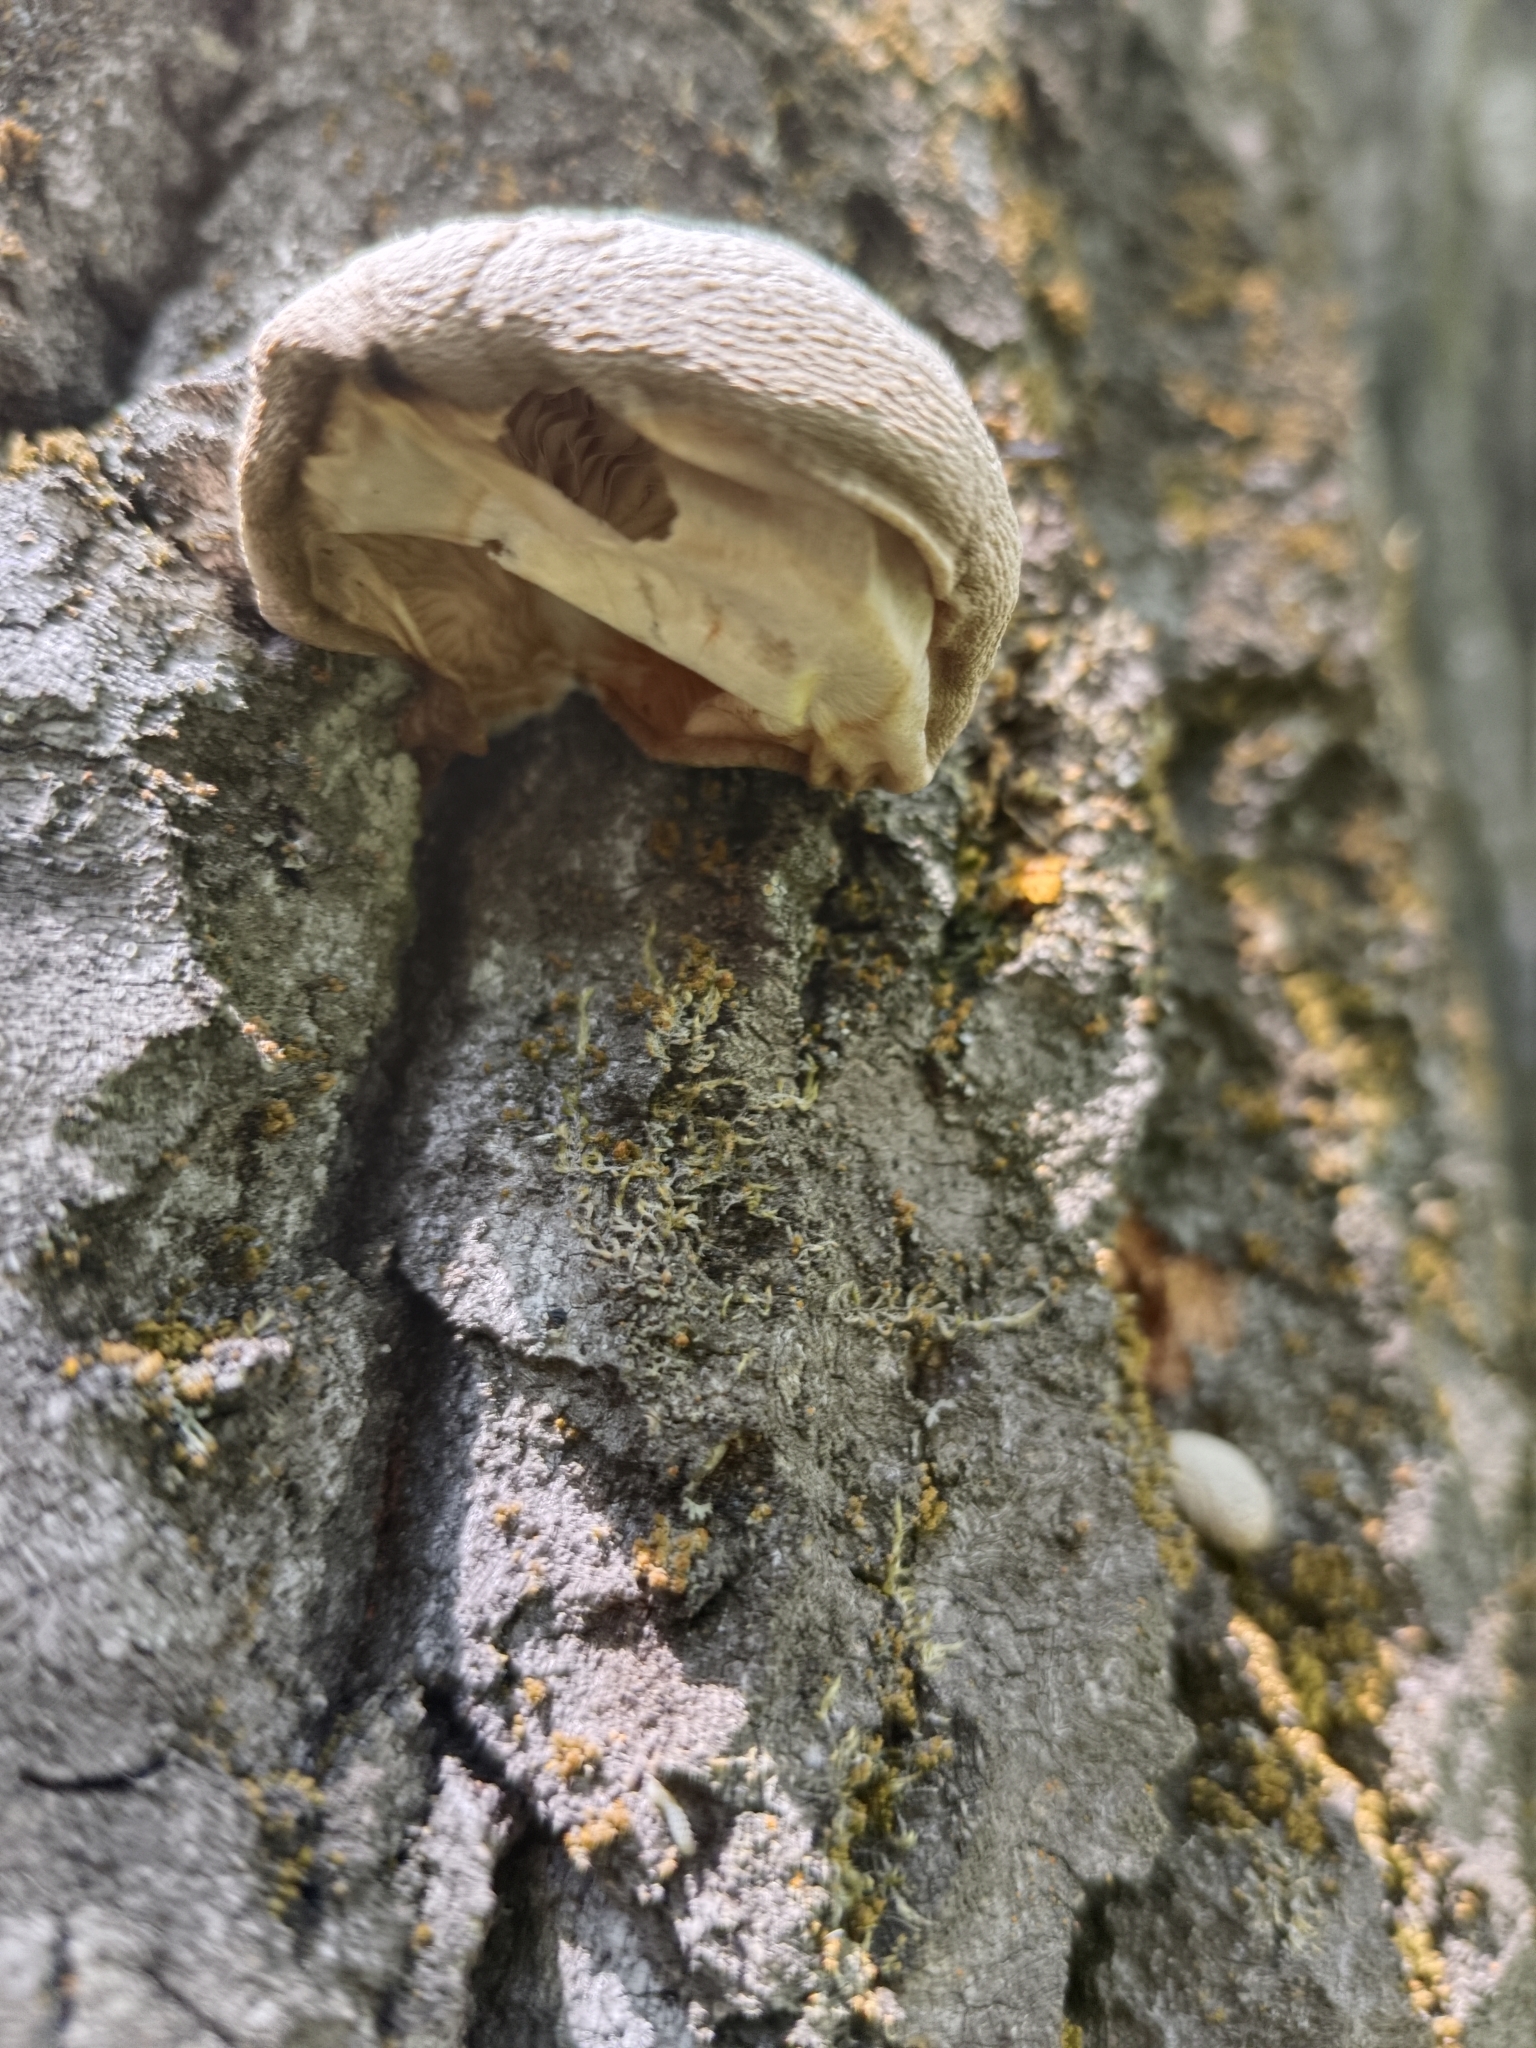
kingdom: Fungi
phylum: Basidiomycota
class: Agaricomycetes
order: Agaricales
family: Pleurotaceae
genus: Pleurotus
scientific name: Pleurotus calyptratus
